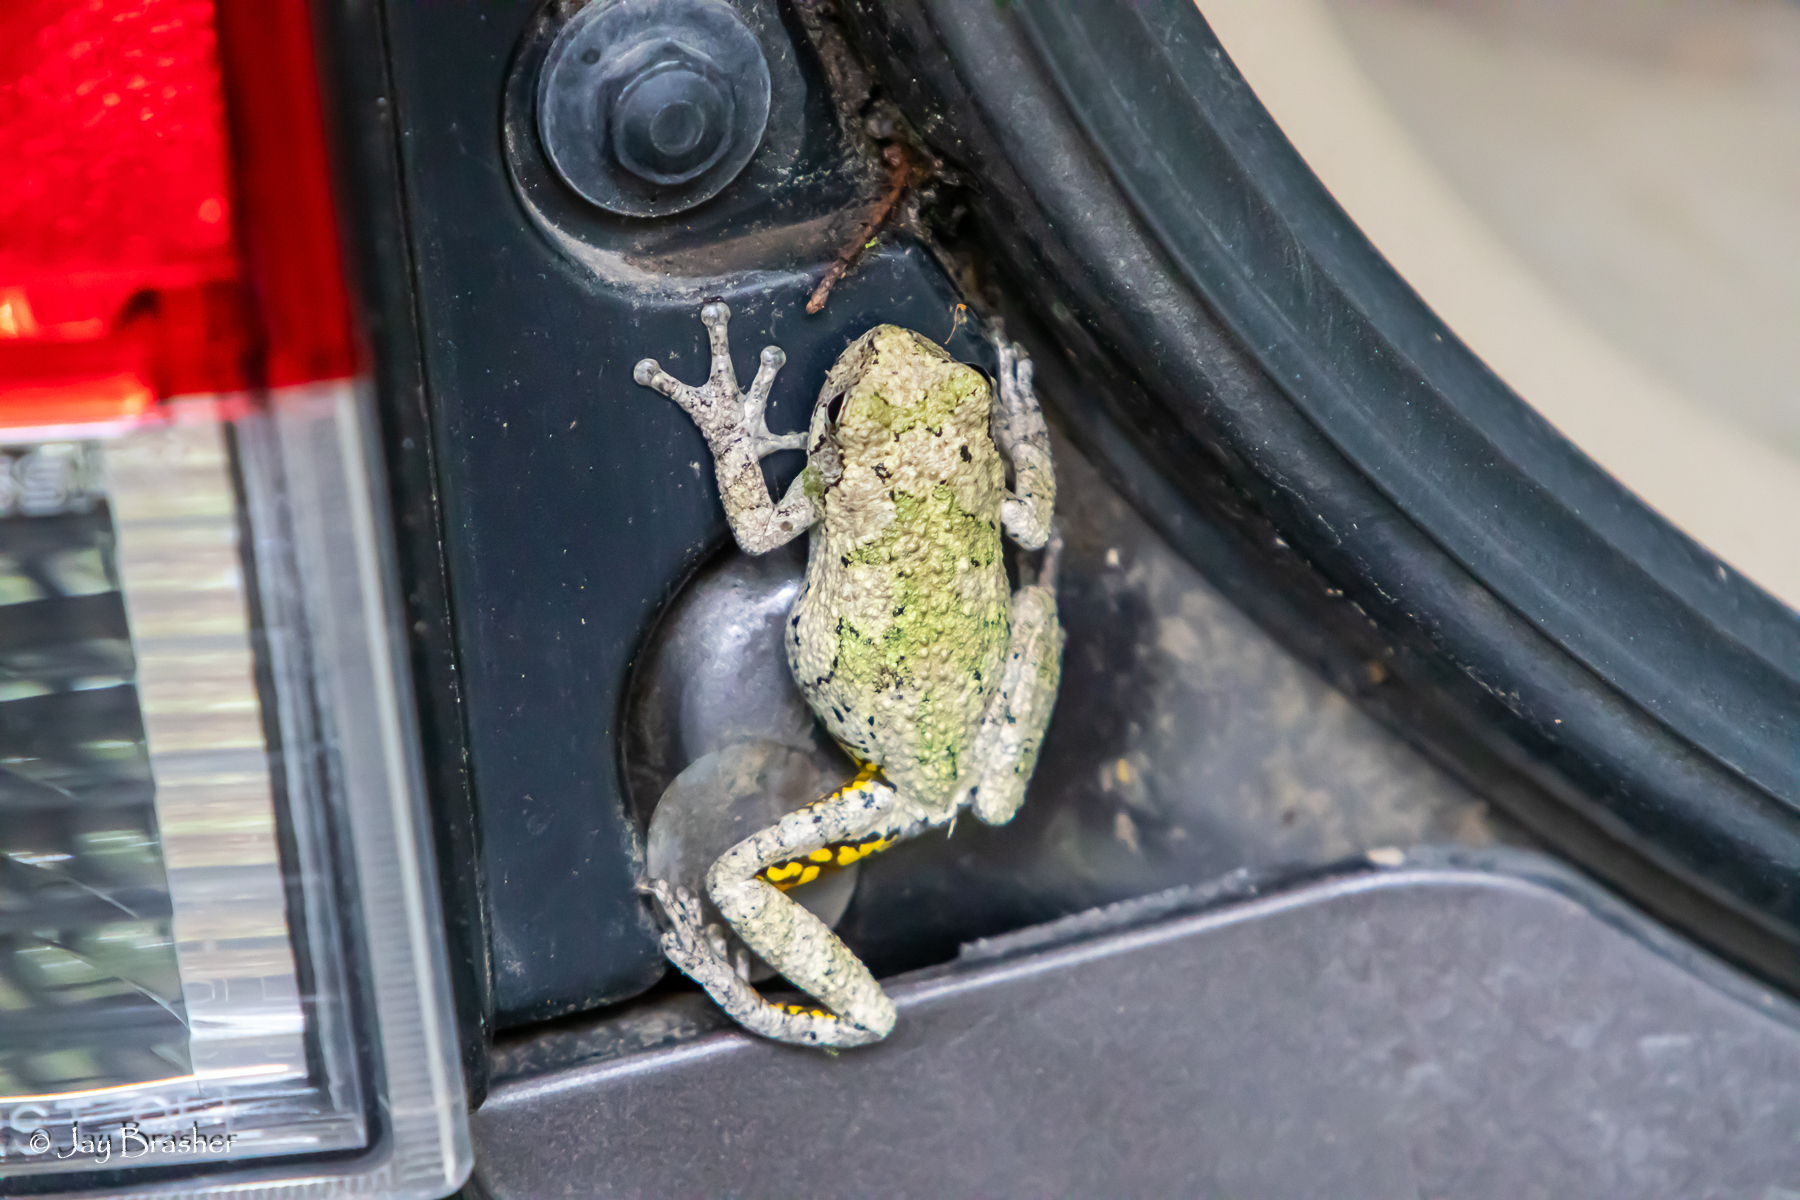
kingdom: Animalia
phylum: Chordata
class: Amphibia
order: Anura
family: Hylidae
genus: Dryophytes
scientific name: Dryophytes chrysoscelis
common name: Cope's gray treefrog
